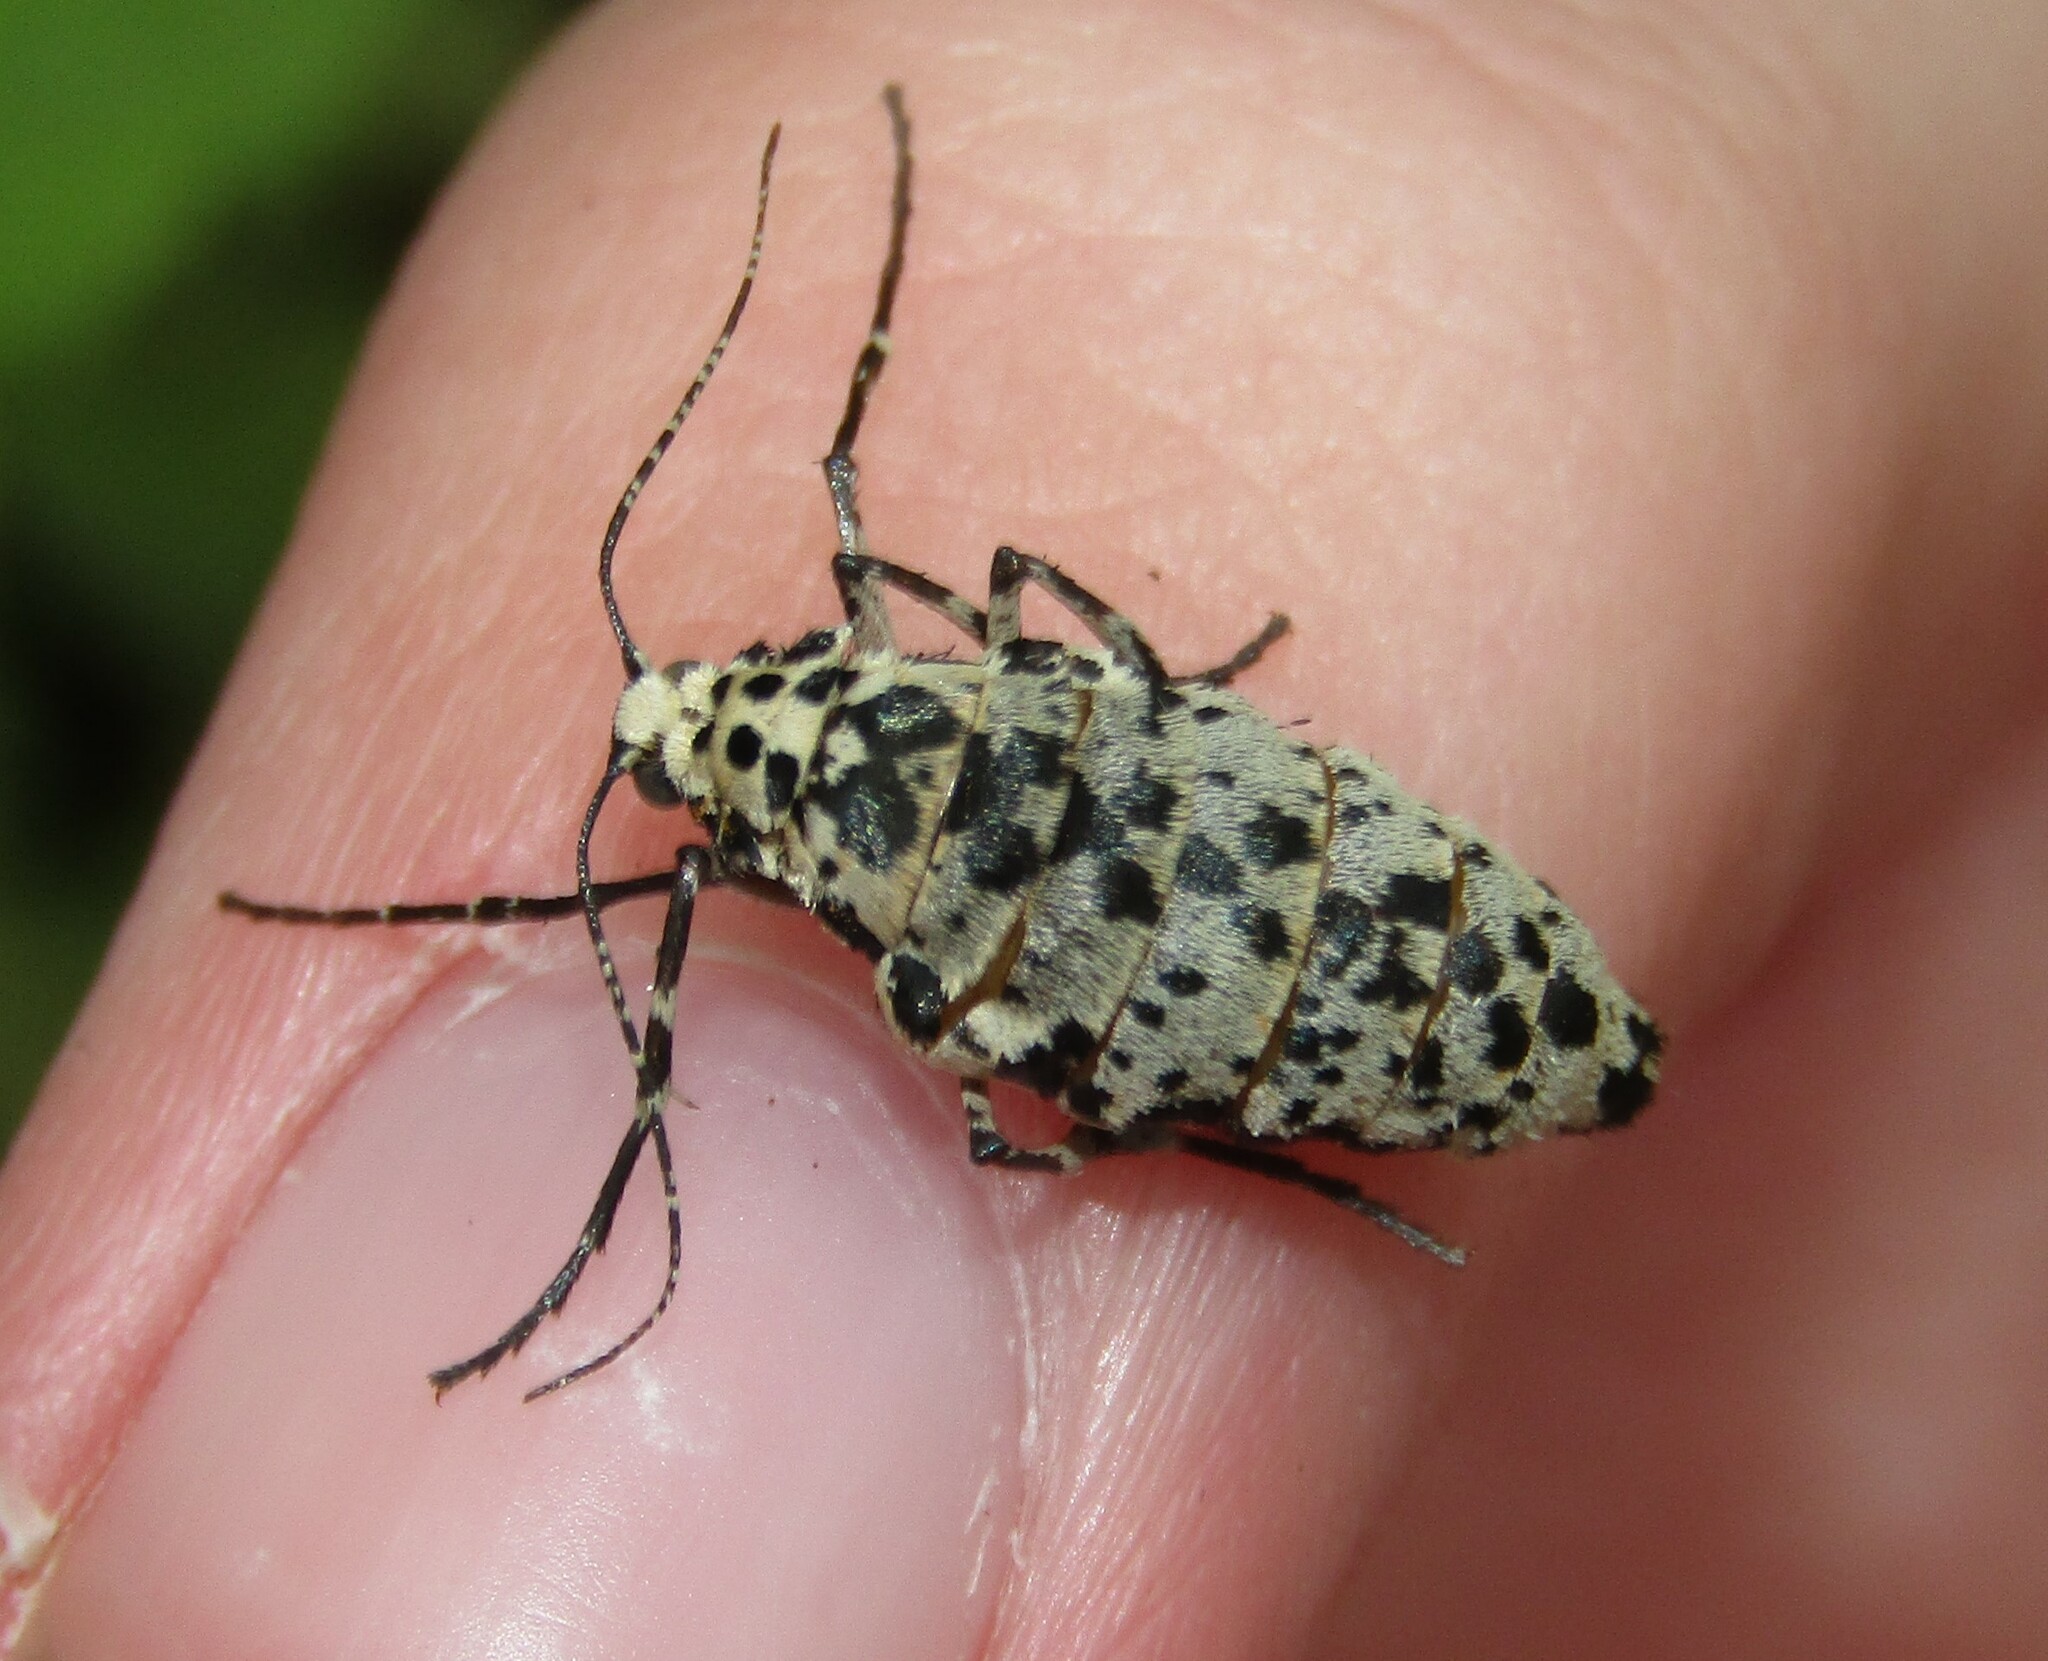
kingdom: Animalia
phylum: Arthropoda
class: Insecta
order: Lepidoptera
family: Geometridae
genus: Erannis
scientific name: Erannis defoliaria
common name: Mottled umber
